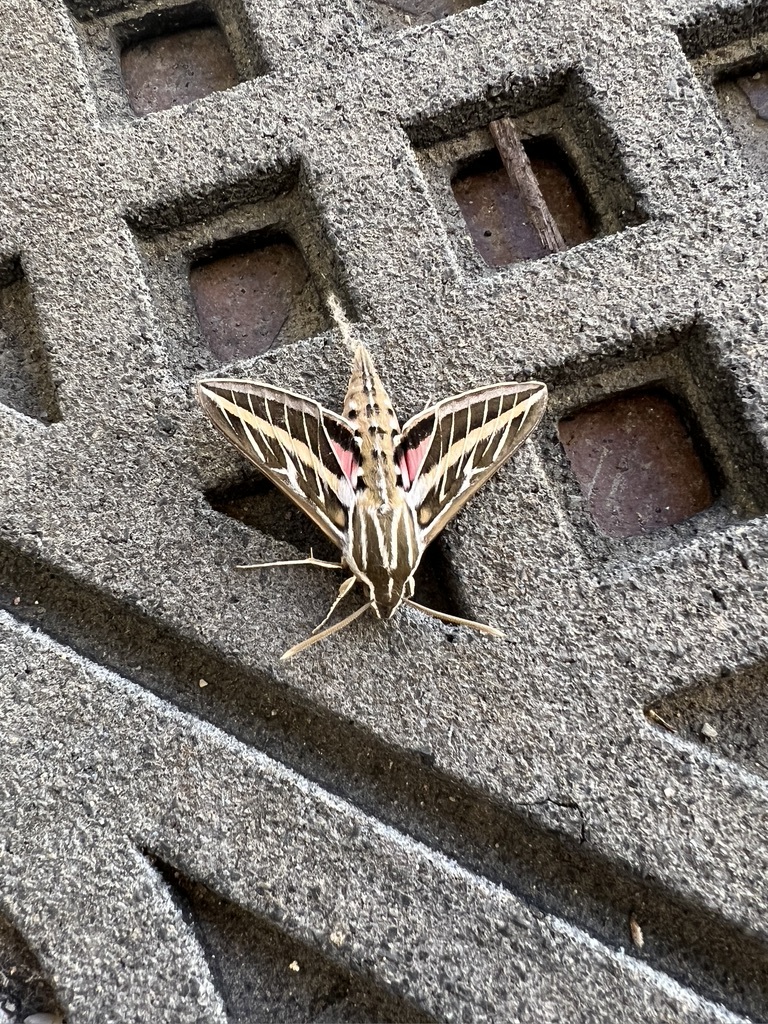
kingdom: Animalia
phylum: Arthropoda
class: Insecta
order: Lepidoptera
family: Sphingidae
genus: Hyles
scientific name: Hyles lineata
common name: White-lined sphinx
